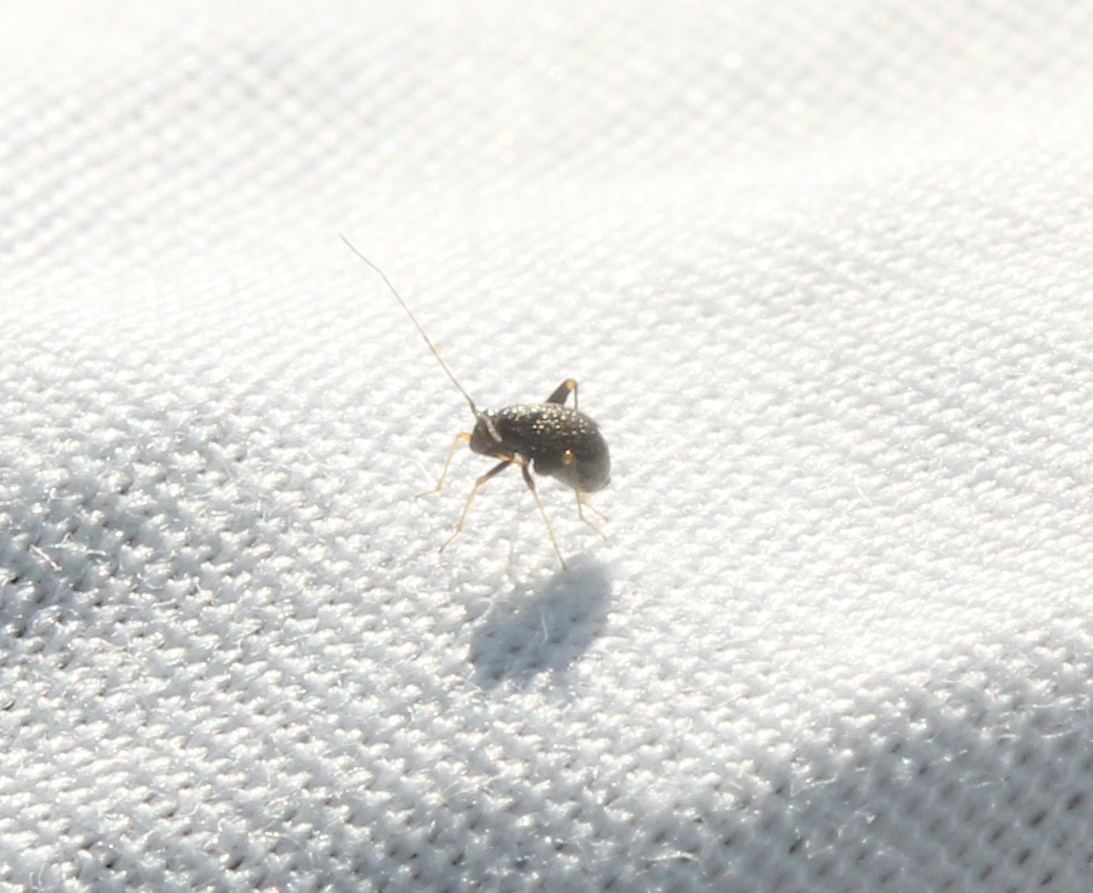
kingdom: Animalia
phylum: Arthropoda
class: Insecta
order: Hemiptera
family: Miridae
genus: Microtechnites
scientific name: Microtechnites bractatus
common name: Garden fleahopper
